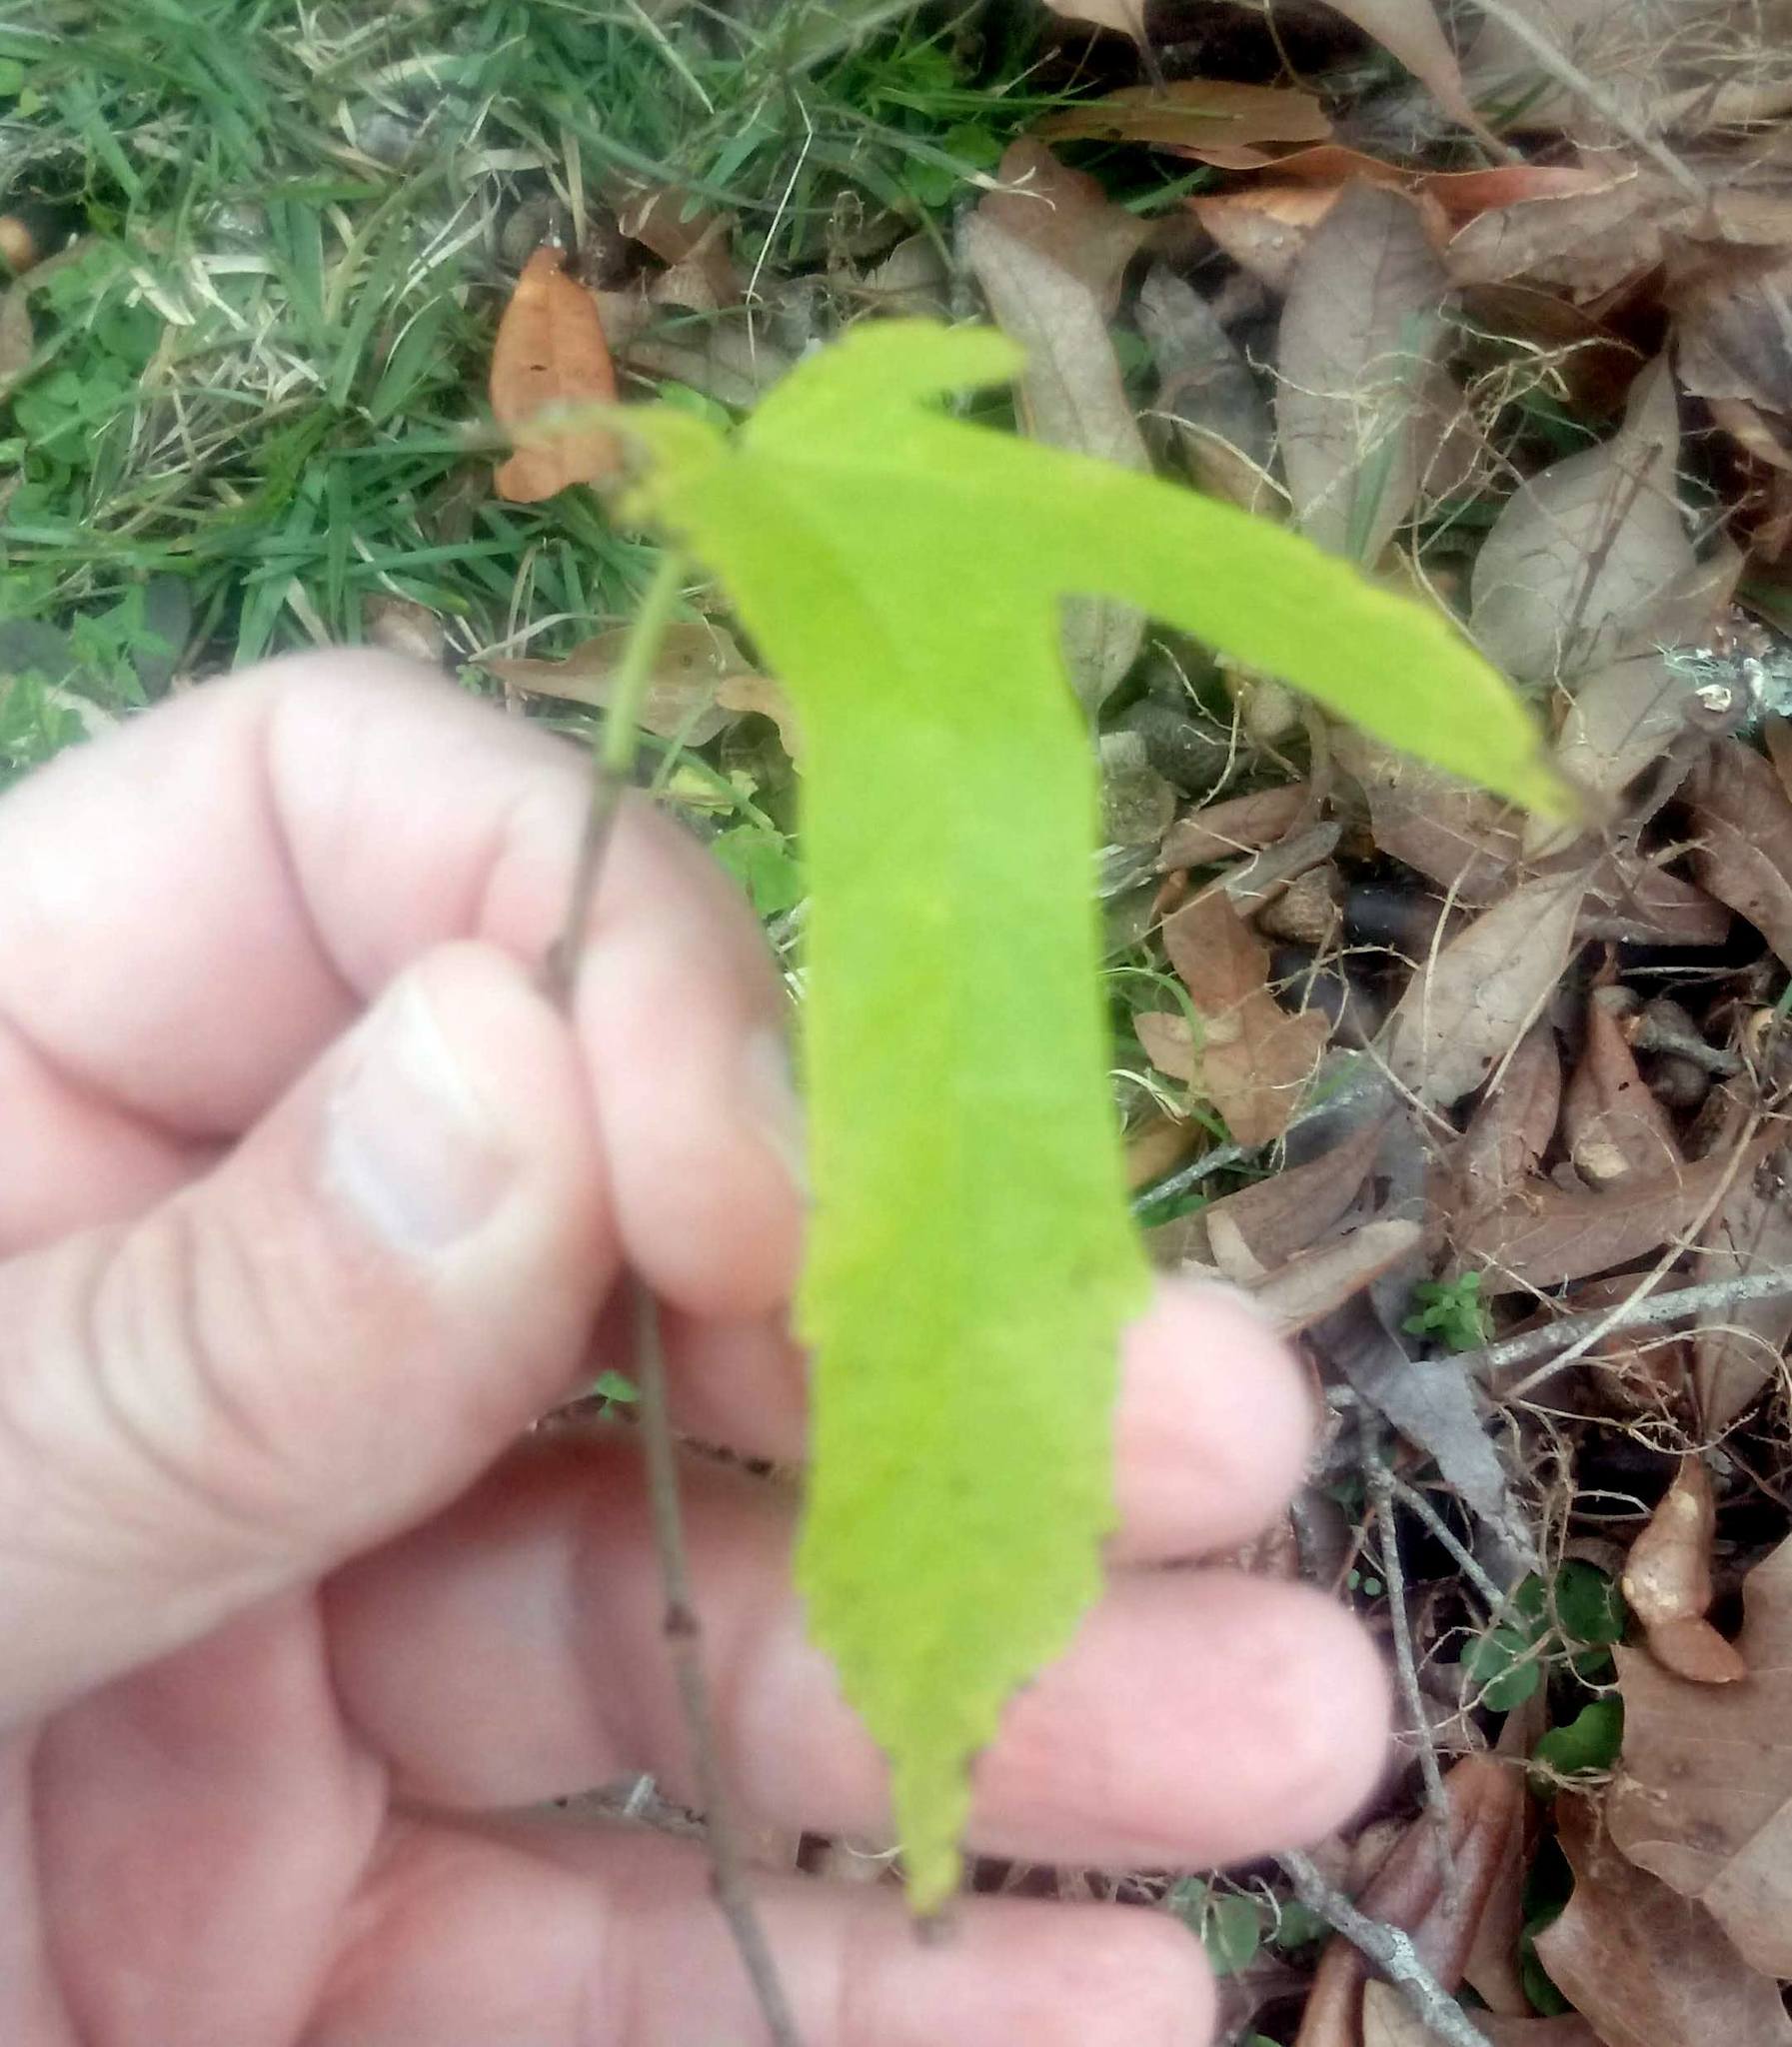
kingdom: Plantae
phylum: Tracheophyta
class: Magnoliopsida
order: Saxifragales
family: Altingiaceae
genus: Liquidambar
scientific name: Liquidambar styraciflua
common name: Sweet gum
